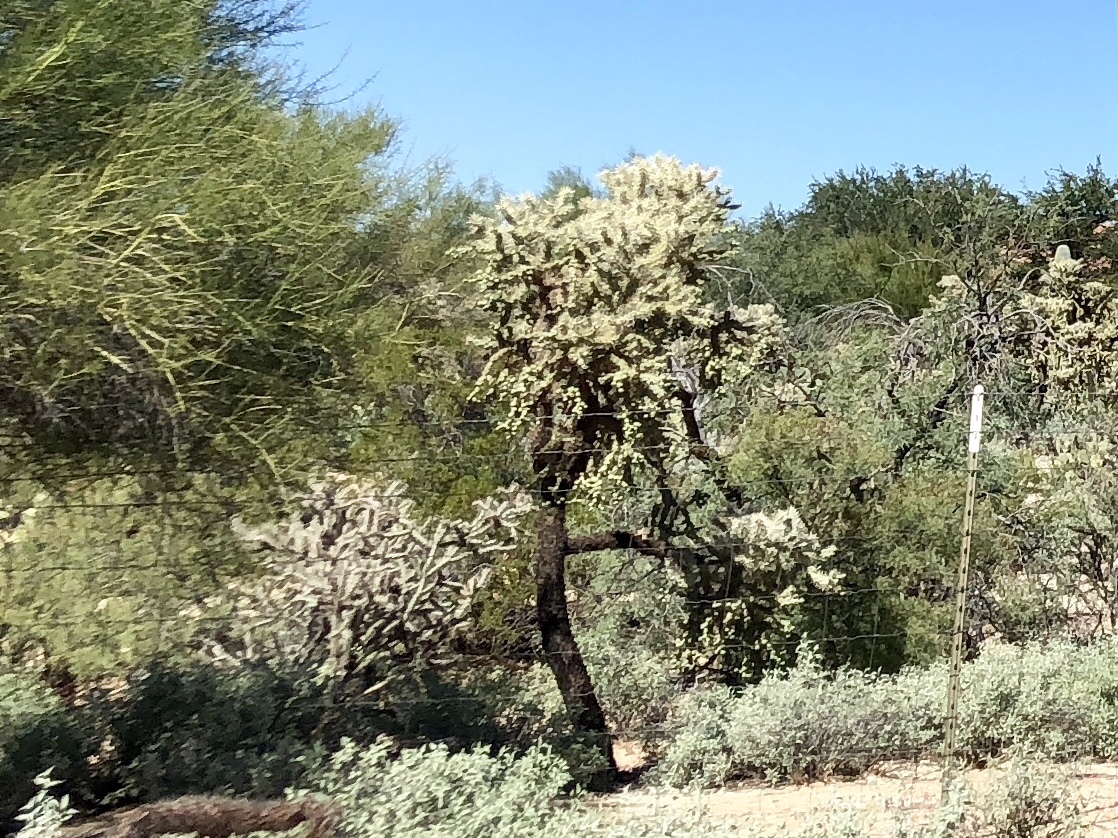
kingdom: Plantae
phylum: Tracheophyta
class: Magnoliopsida
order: Caryophyllales
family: Cactaceae
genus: Cylindropuntia
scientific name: Cylindropuntia fulgida
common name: Jumping cholla
